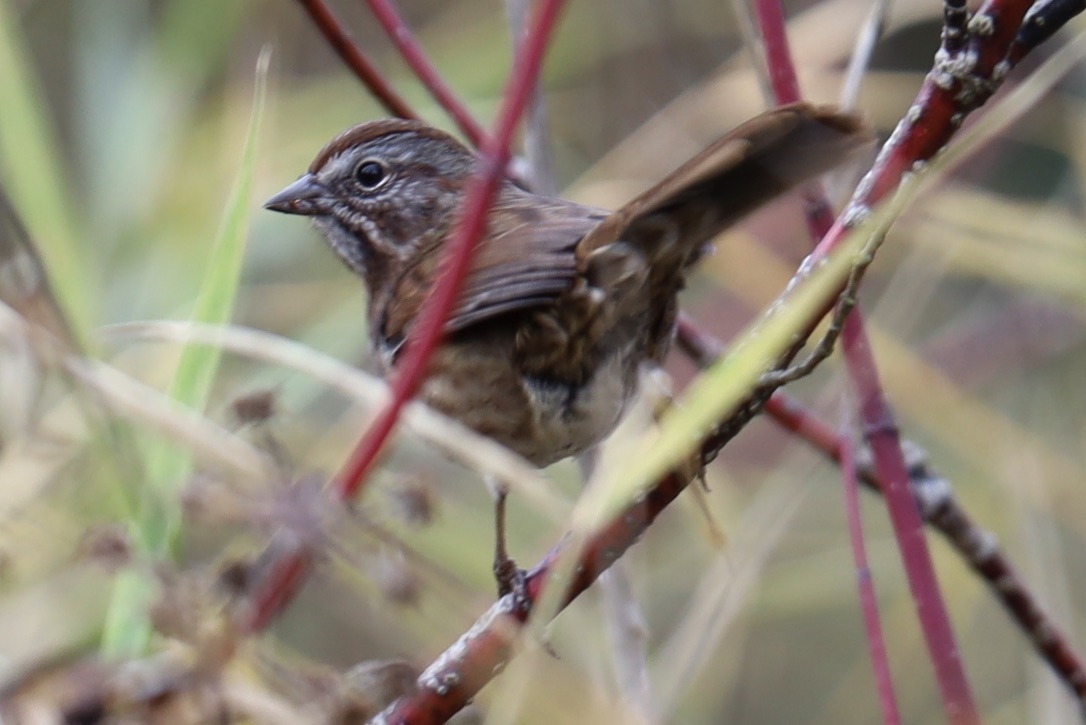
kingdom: Animalia
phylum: Chordata
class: Aves
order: Passeriformes
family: Passerellidae
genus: Melospiza
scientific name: Melospiza melodia
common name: Song sparrow
